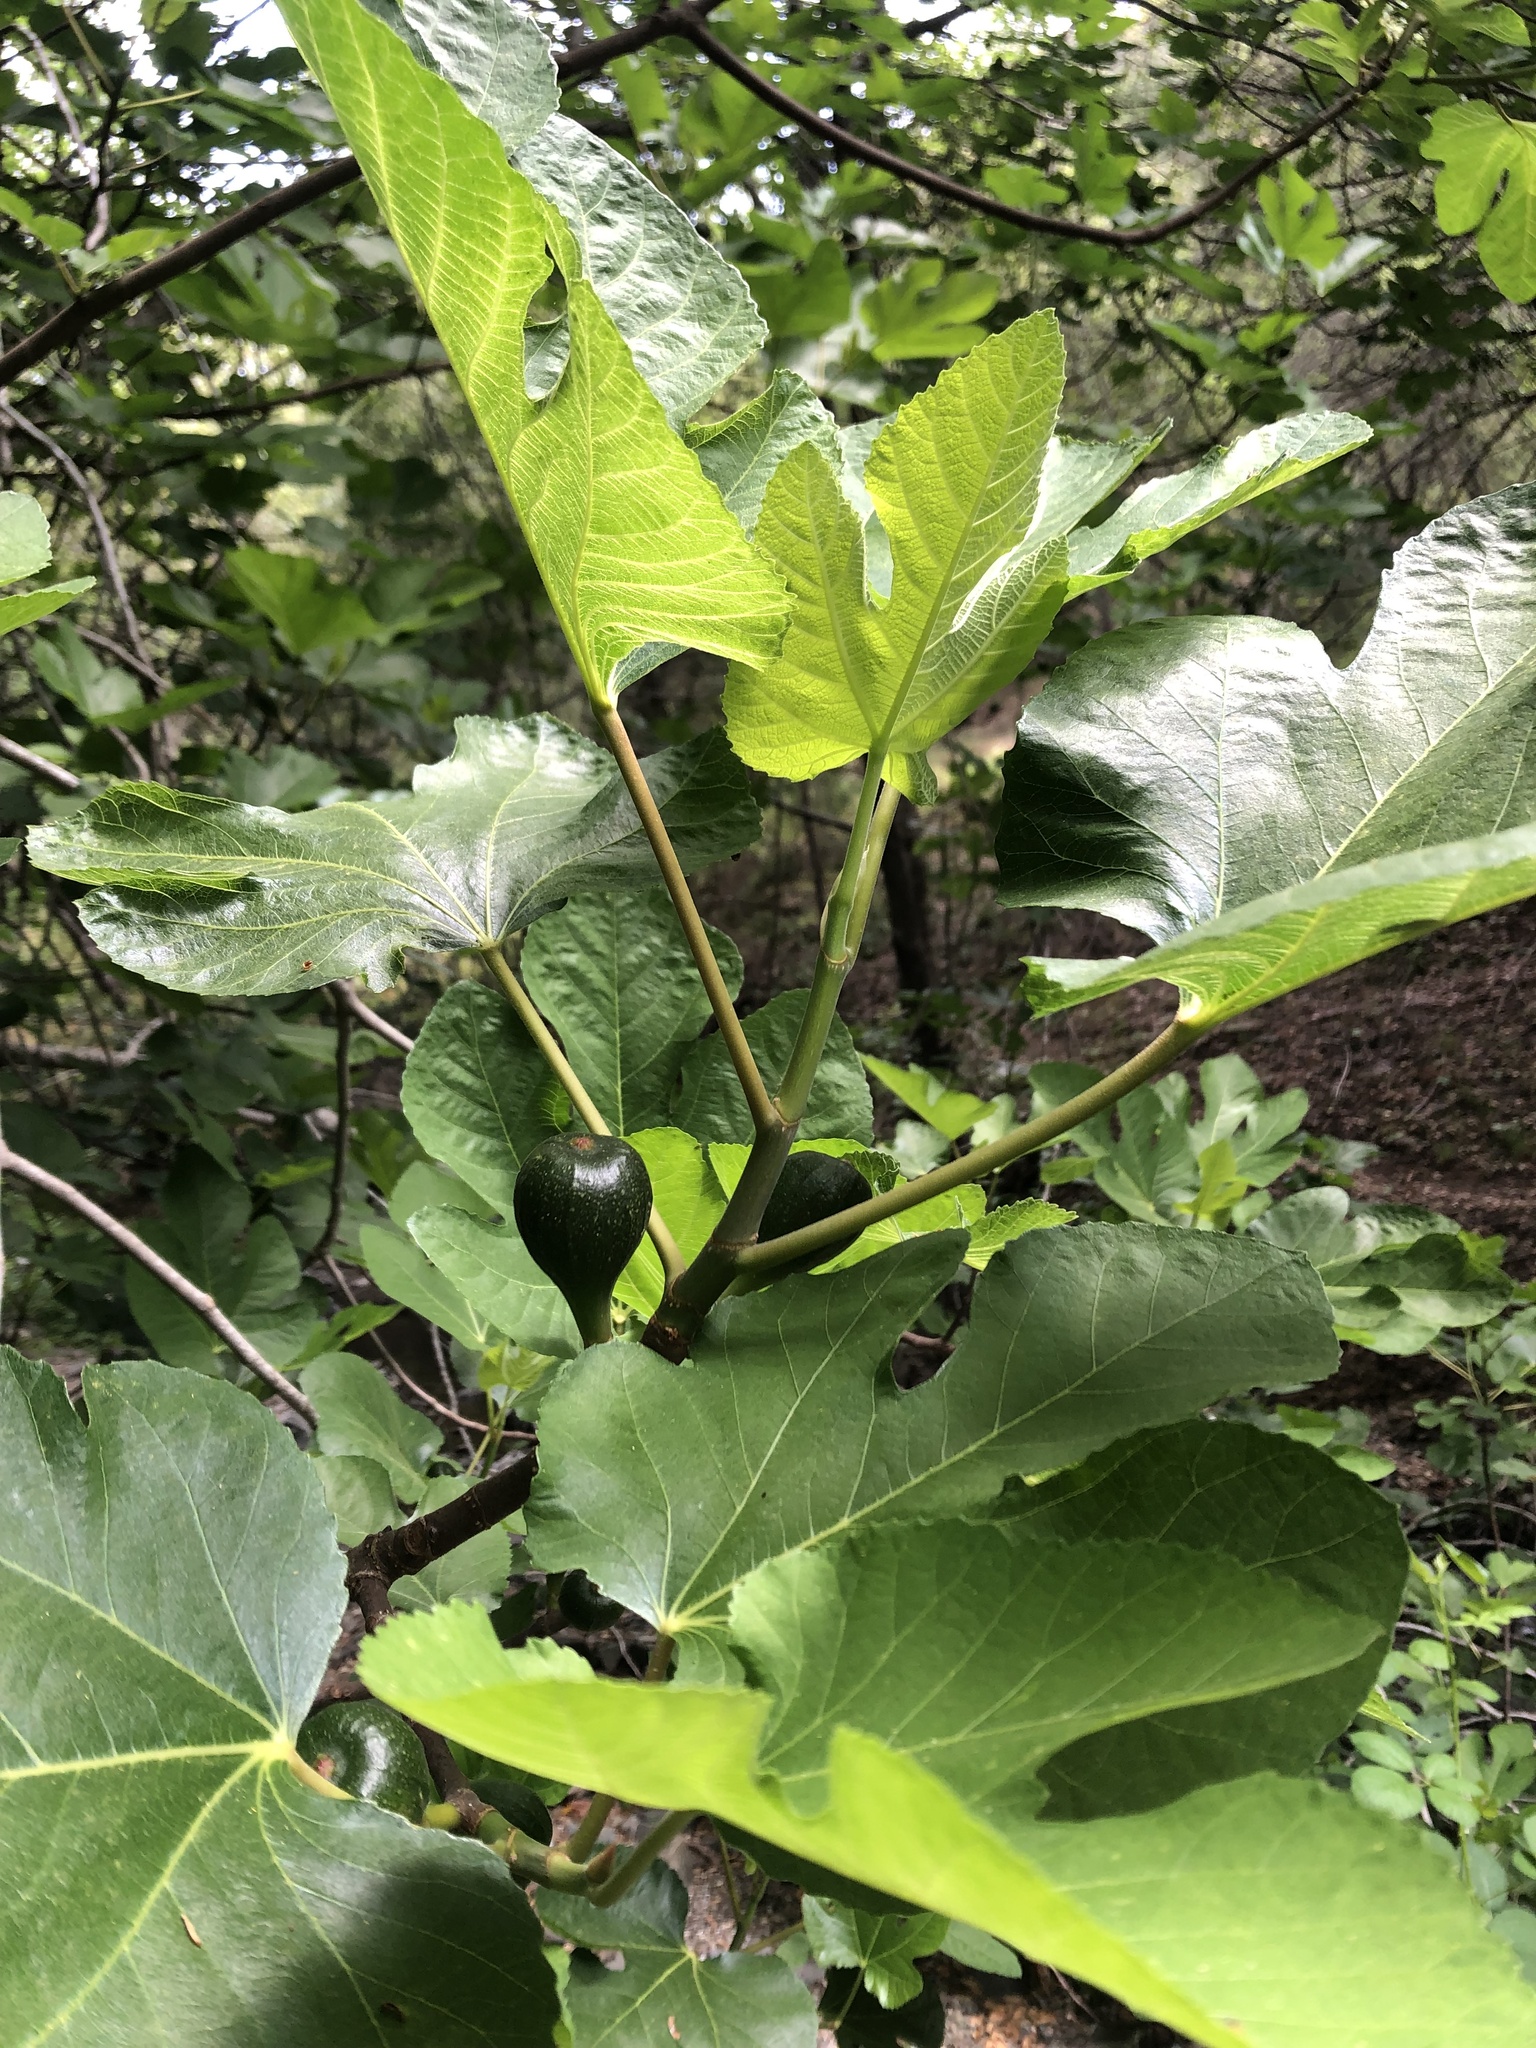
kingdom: Plantae
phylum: Tracheophyta
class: Magnoliopsida
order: Rosales
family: Moraceae
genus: Ficus
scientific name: Ficus carica
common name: Fig
